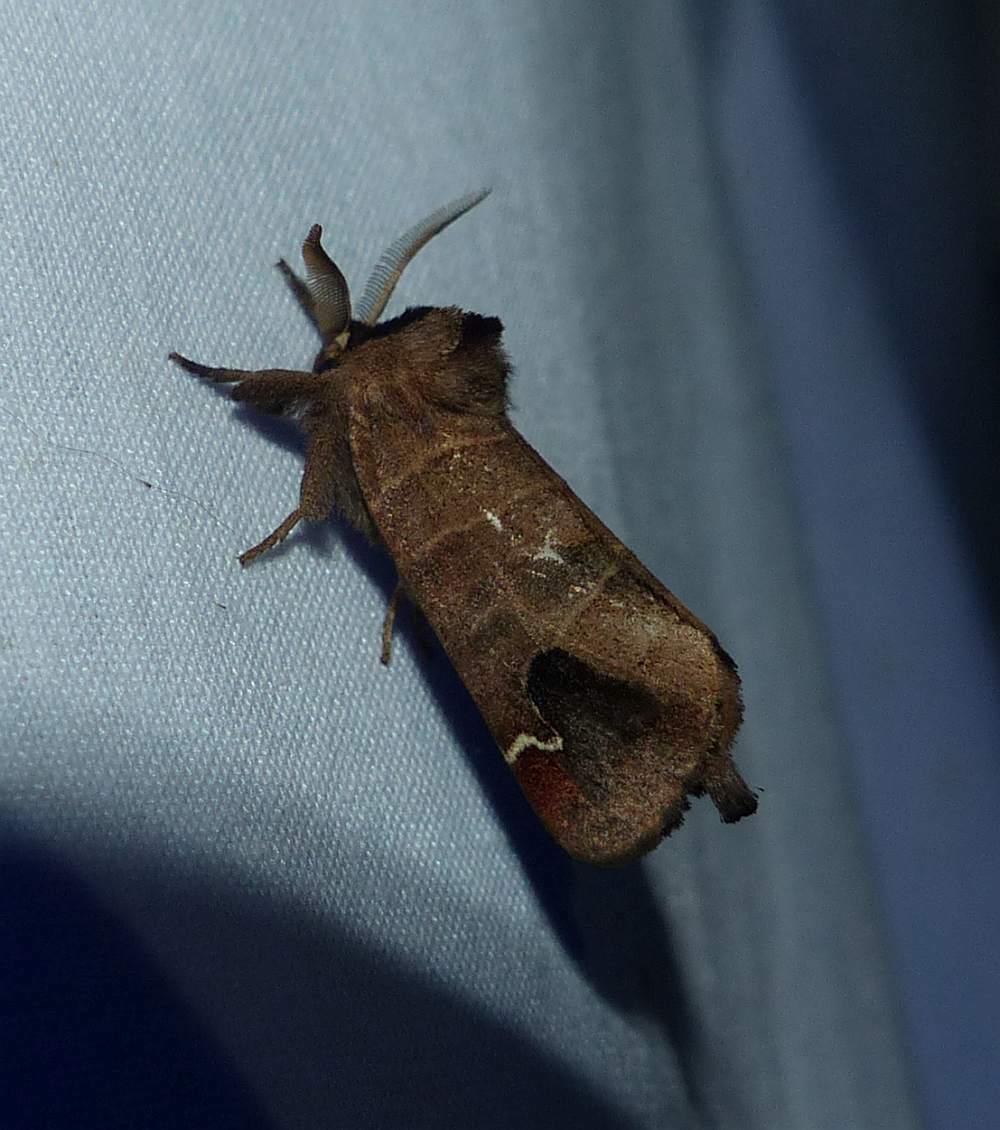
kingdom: Animalia
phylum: Arthropoda
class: Insecta
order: Lepidoptera
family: Notodontidae
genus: Clostera
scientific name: Clostera albosigma
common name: Sigmoid prominent
